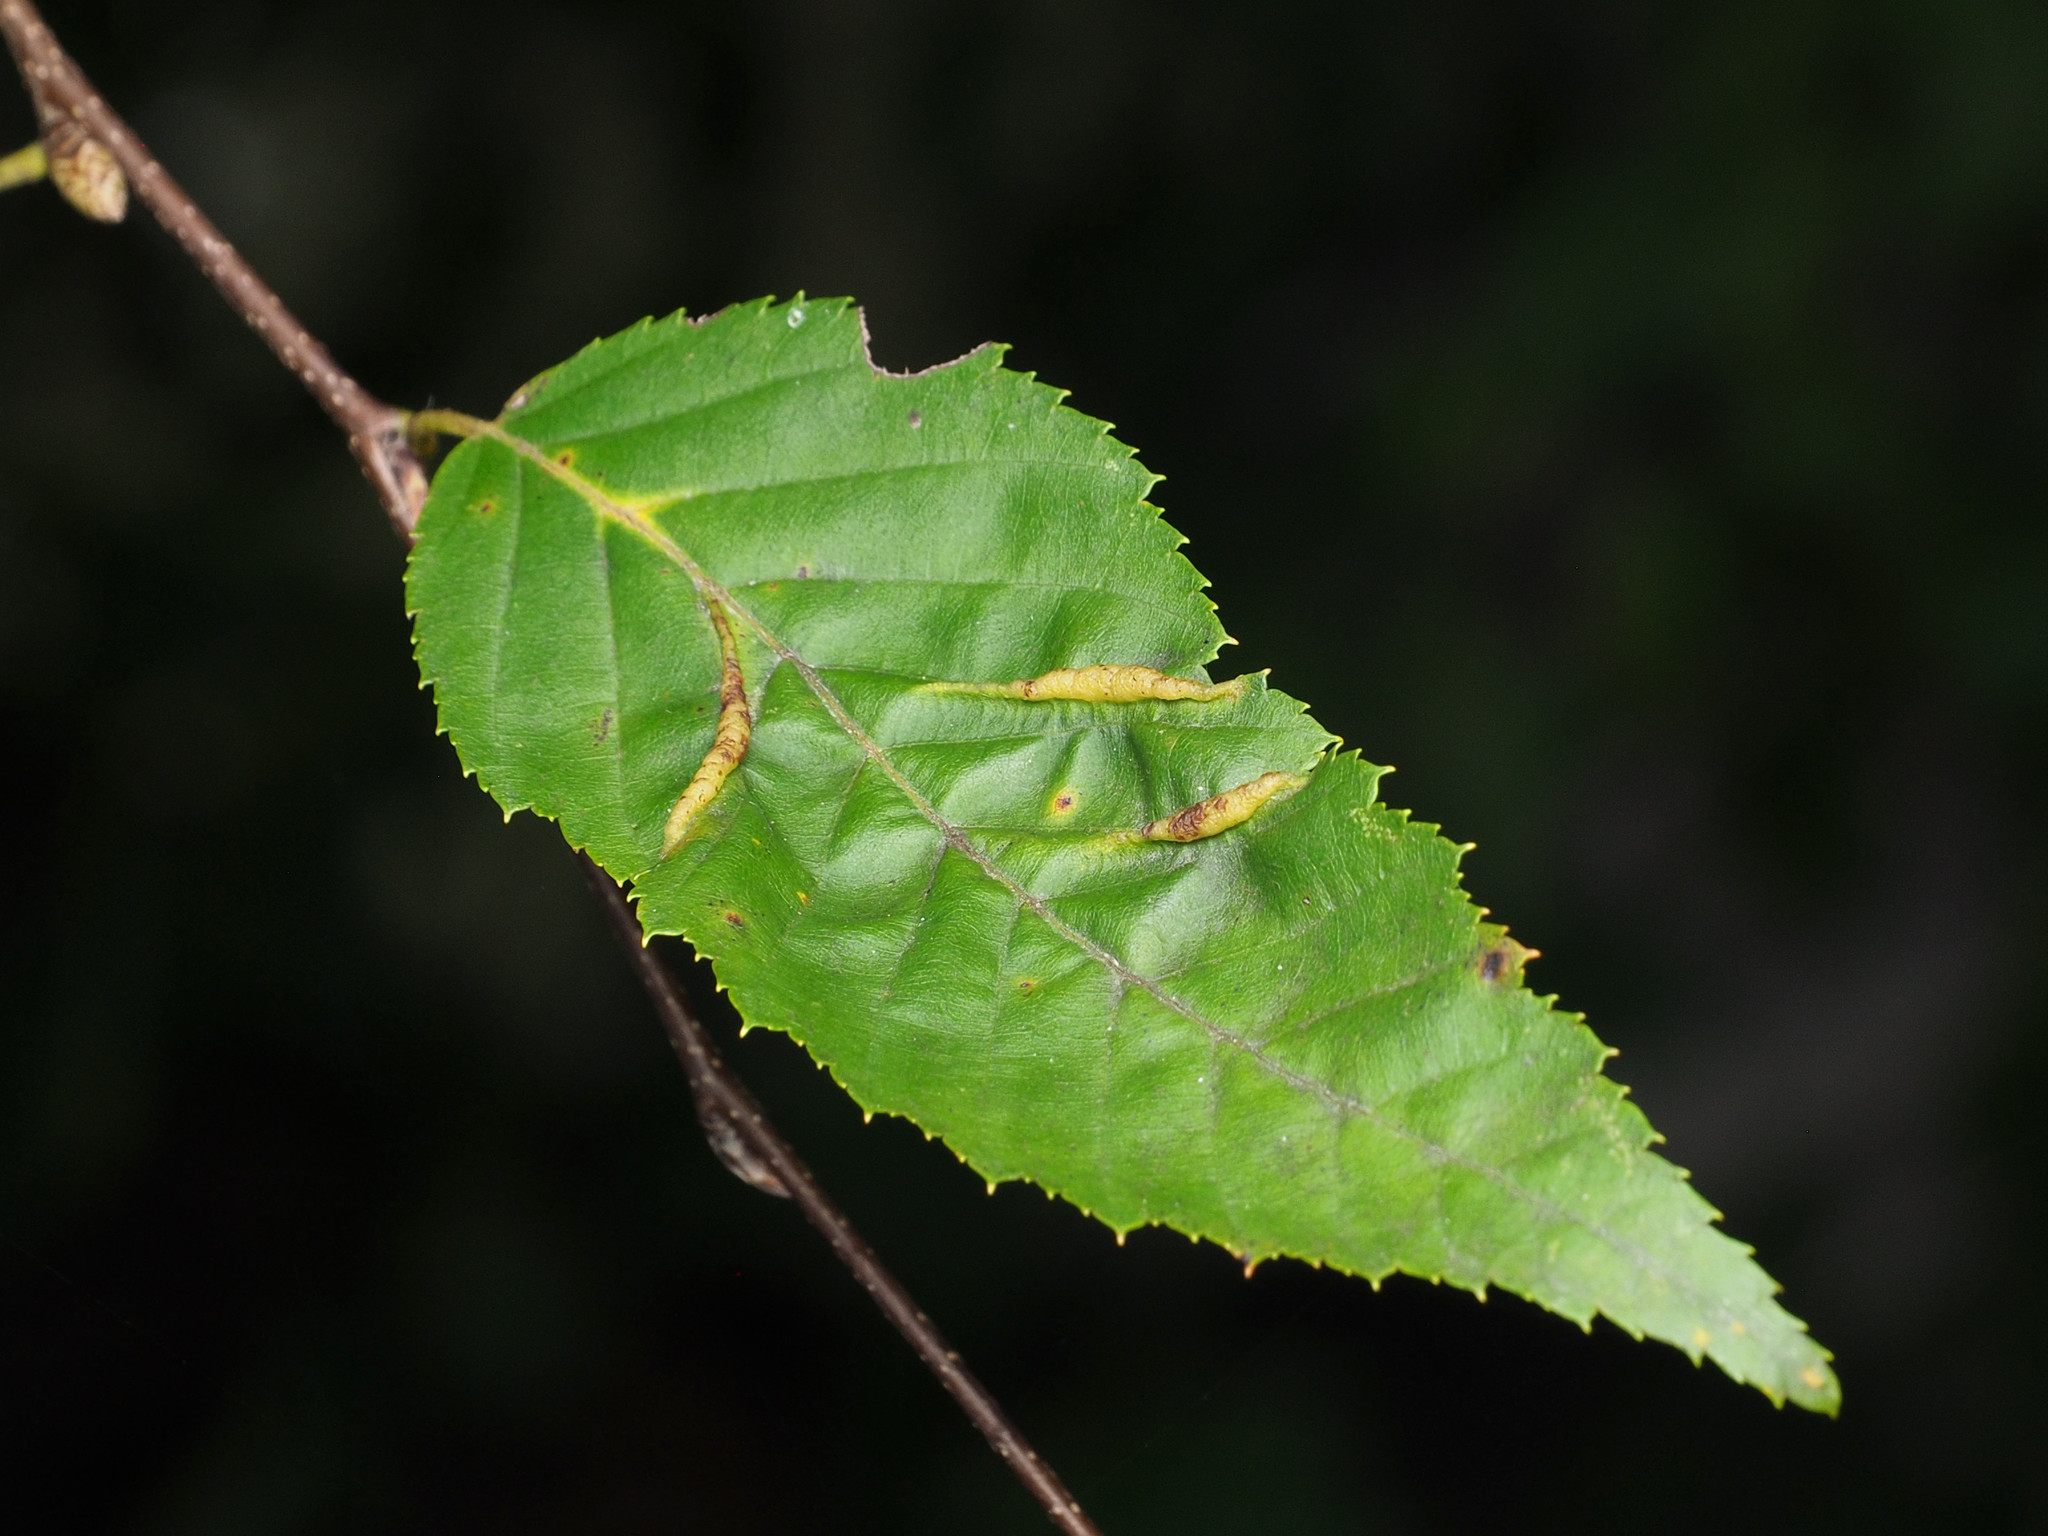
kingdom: Animalia
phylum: Arthropoda
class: Insecta
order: Diptera
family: Cecidomyiidae
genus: Dasineura
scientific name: Dasineura pudibunda
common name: Hornbeam leaf gall midge
